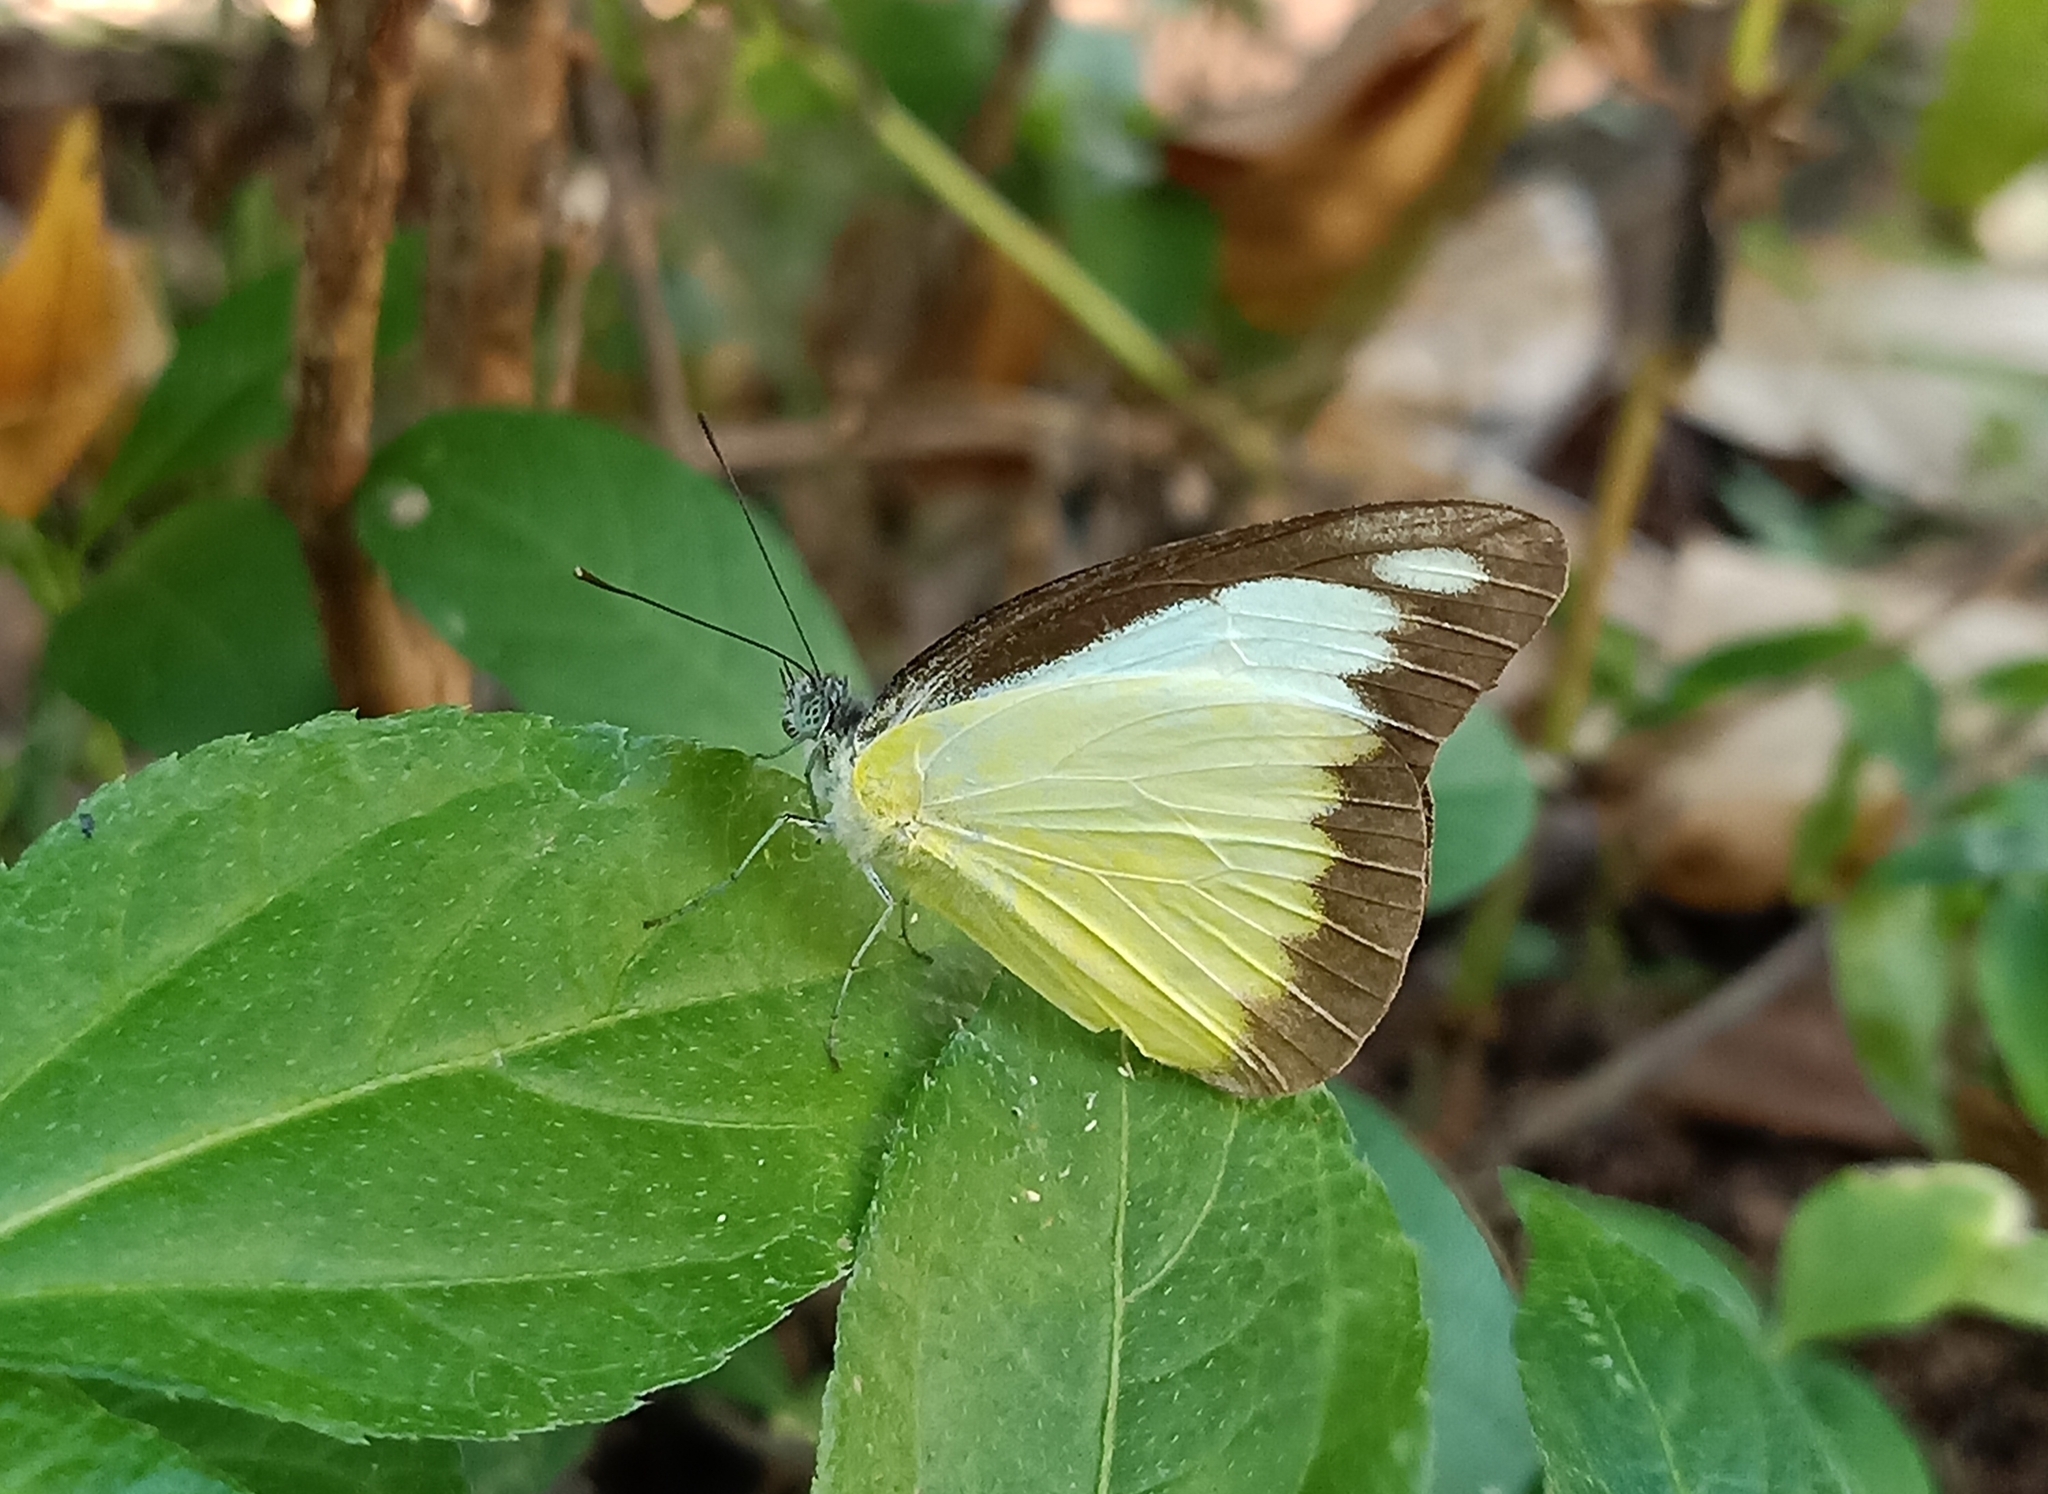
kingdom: Animalia
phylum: Arthropoda
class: Insecta
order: Lepidoptera
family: Pieridae
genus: Appias
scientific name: Appias lyncida
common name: Chocolate albatross
